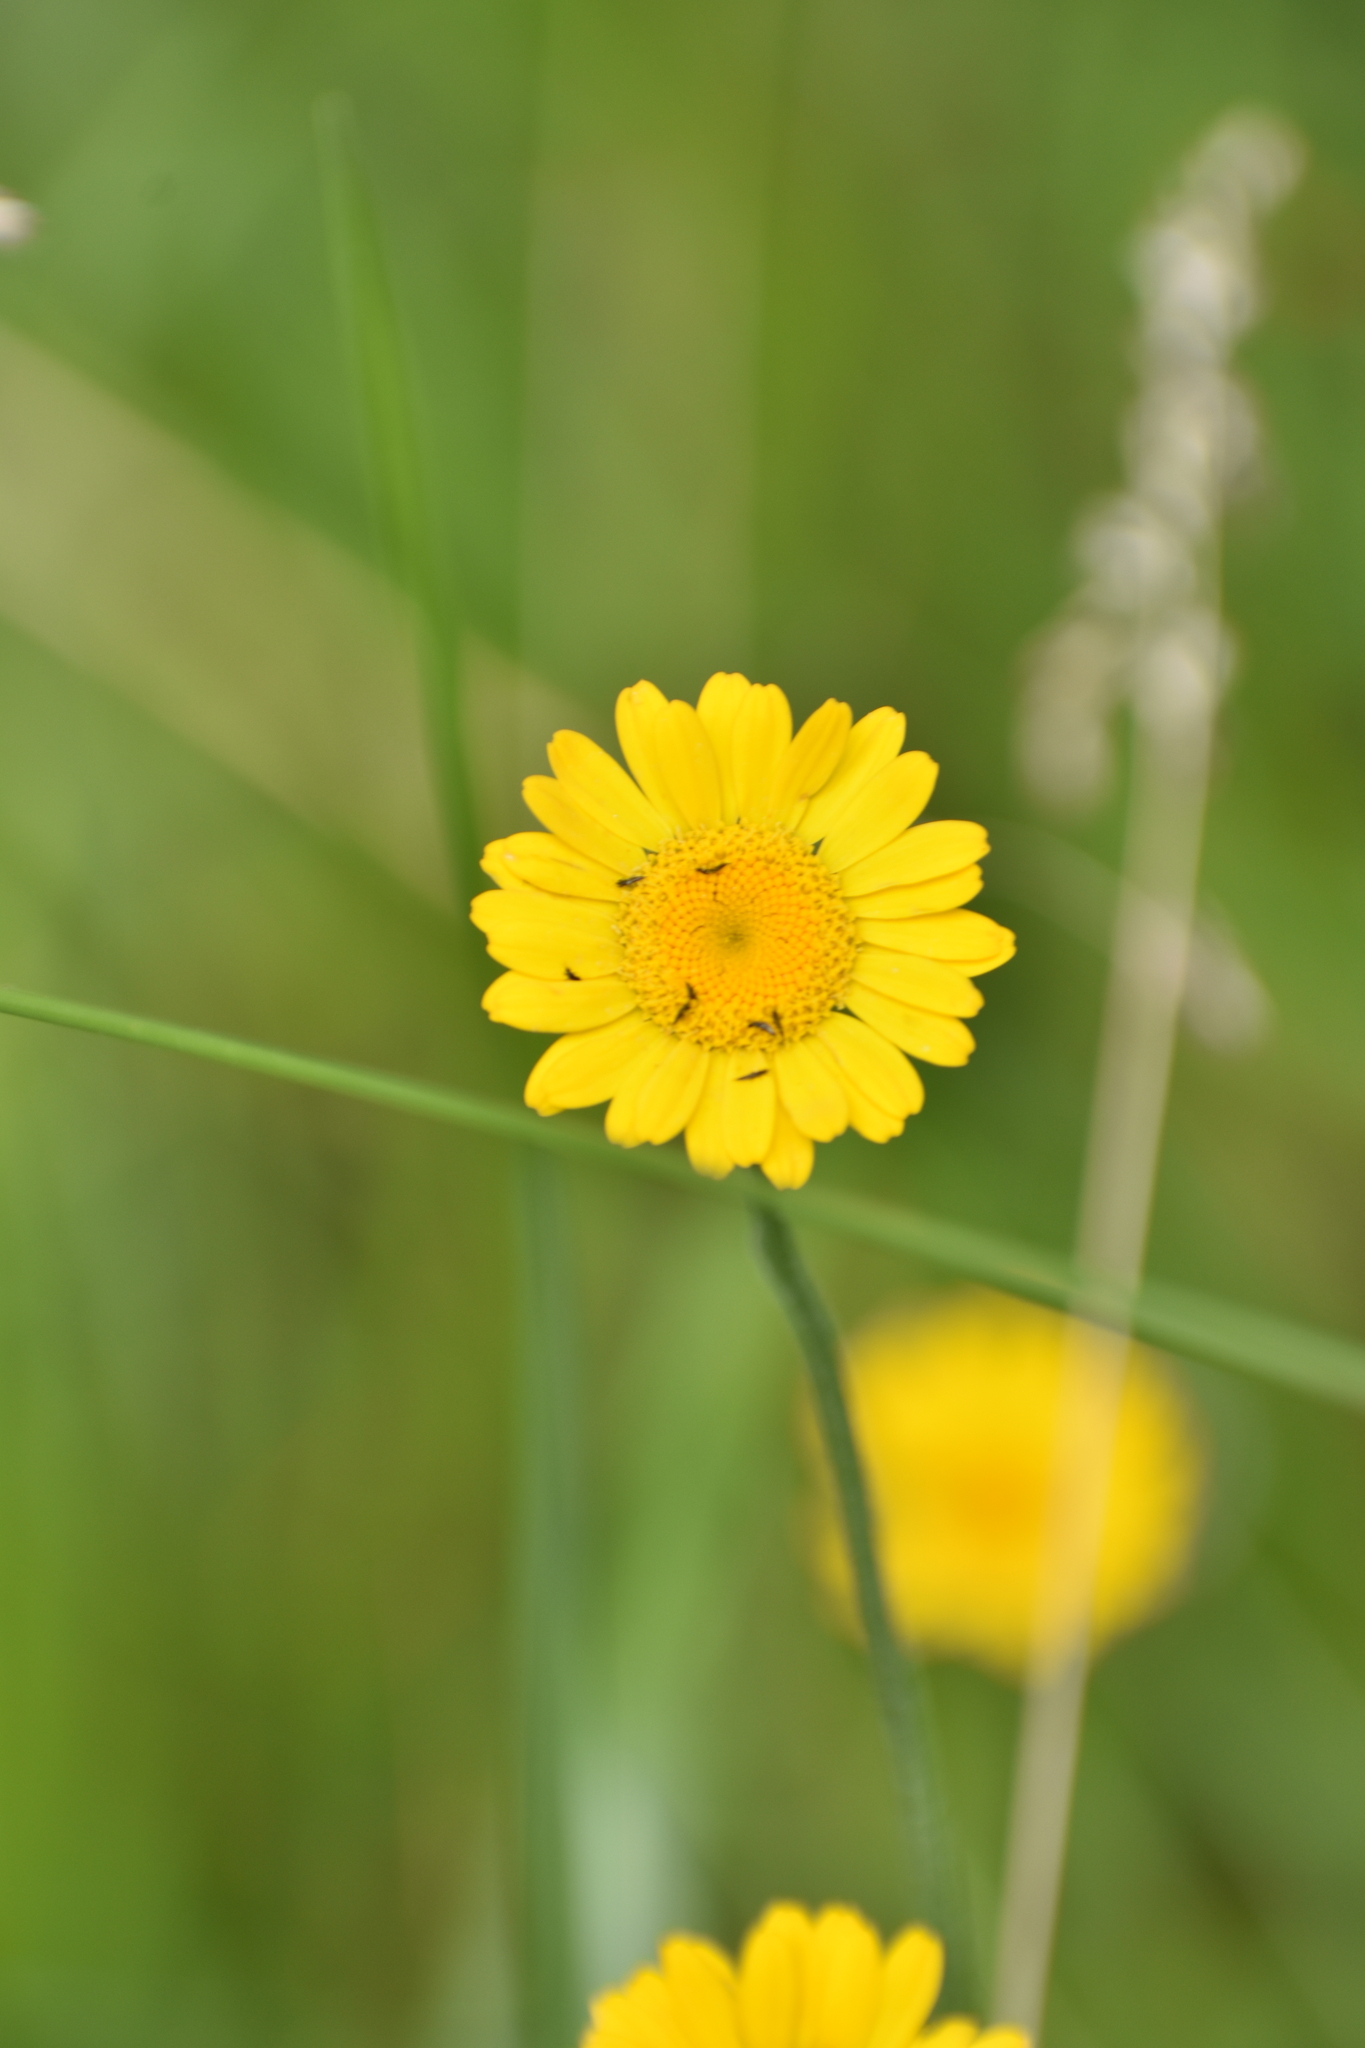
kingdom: Plantae
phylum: Tracheophyta
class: Magnoliopsida
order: Asterales
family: Asteraceae
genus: Cota
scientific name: Cota tinctoria
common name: Golden chamomile
